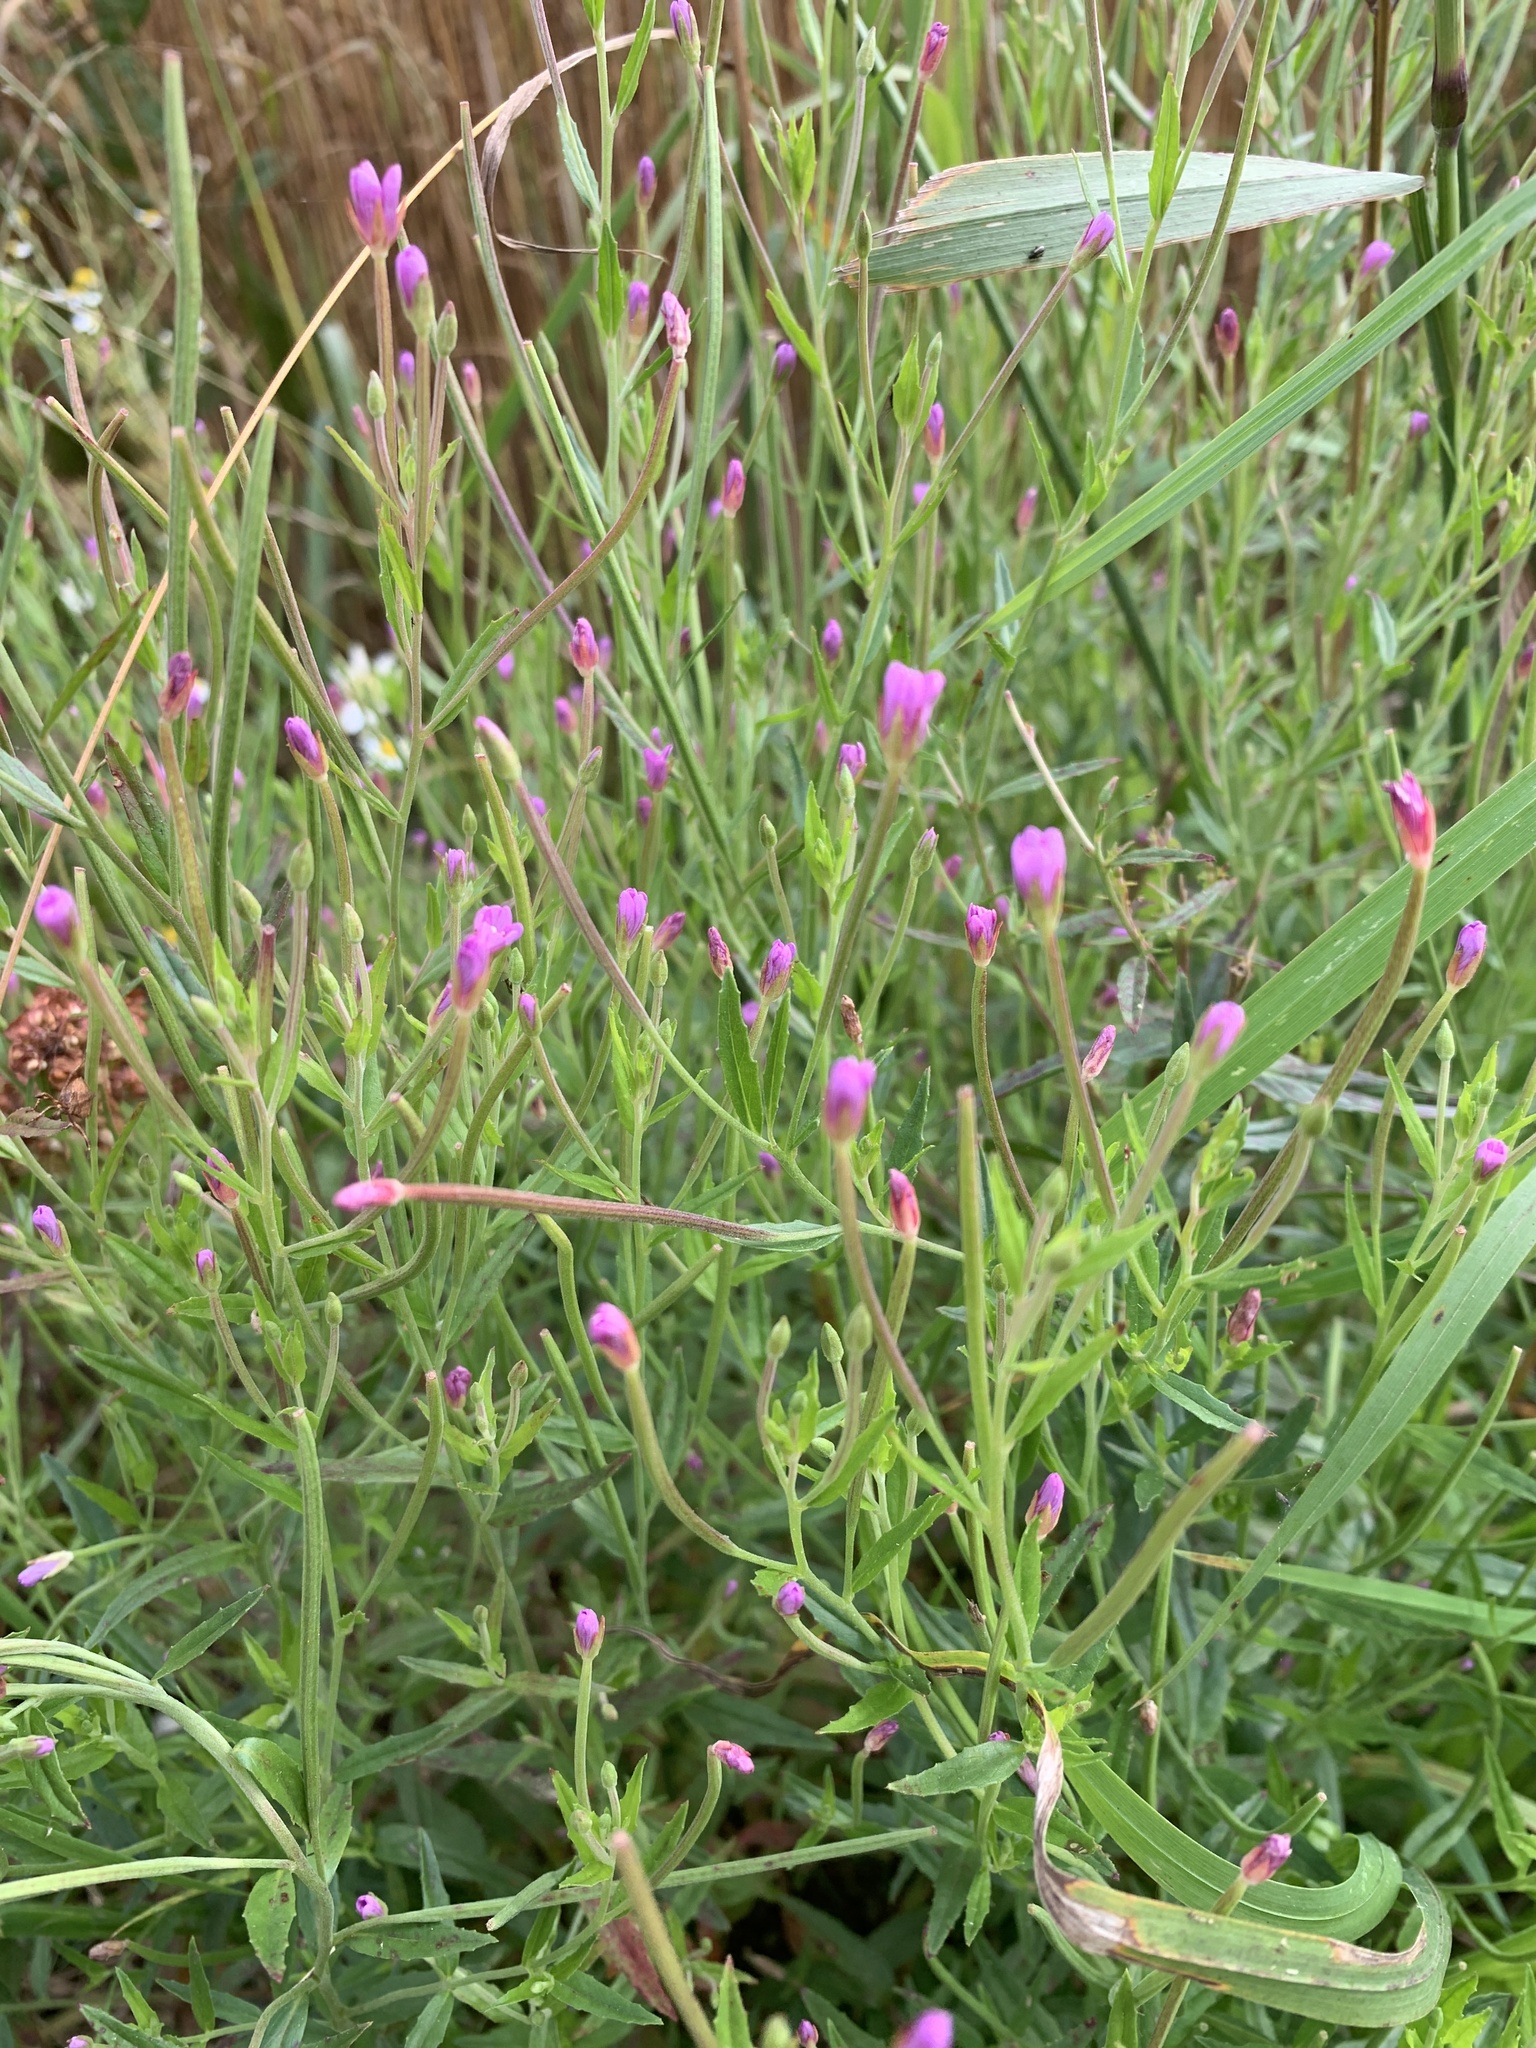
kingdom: Plantae
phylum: Tracheophyta
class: Magnoliopsida
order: Myrtales
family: Onagraceae
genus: Epilobium
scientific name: Epilobium hirsutum
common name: Great willowherb
